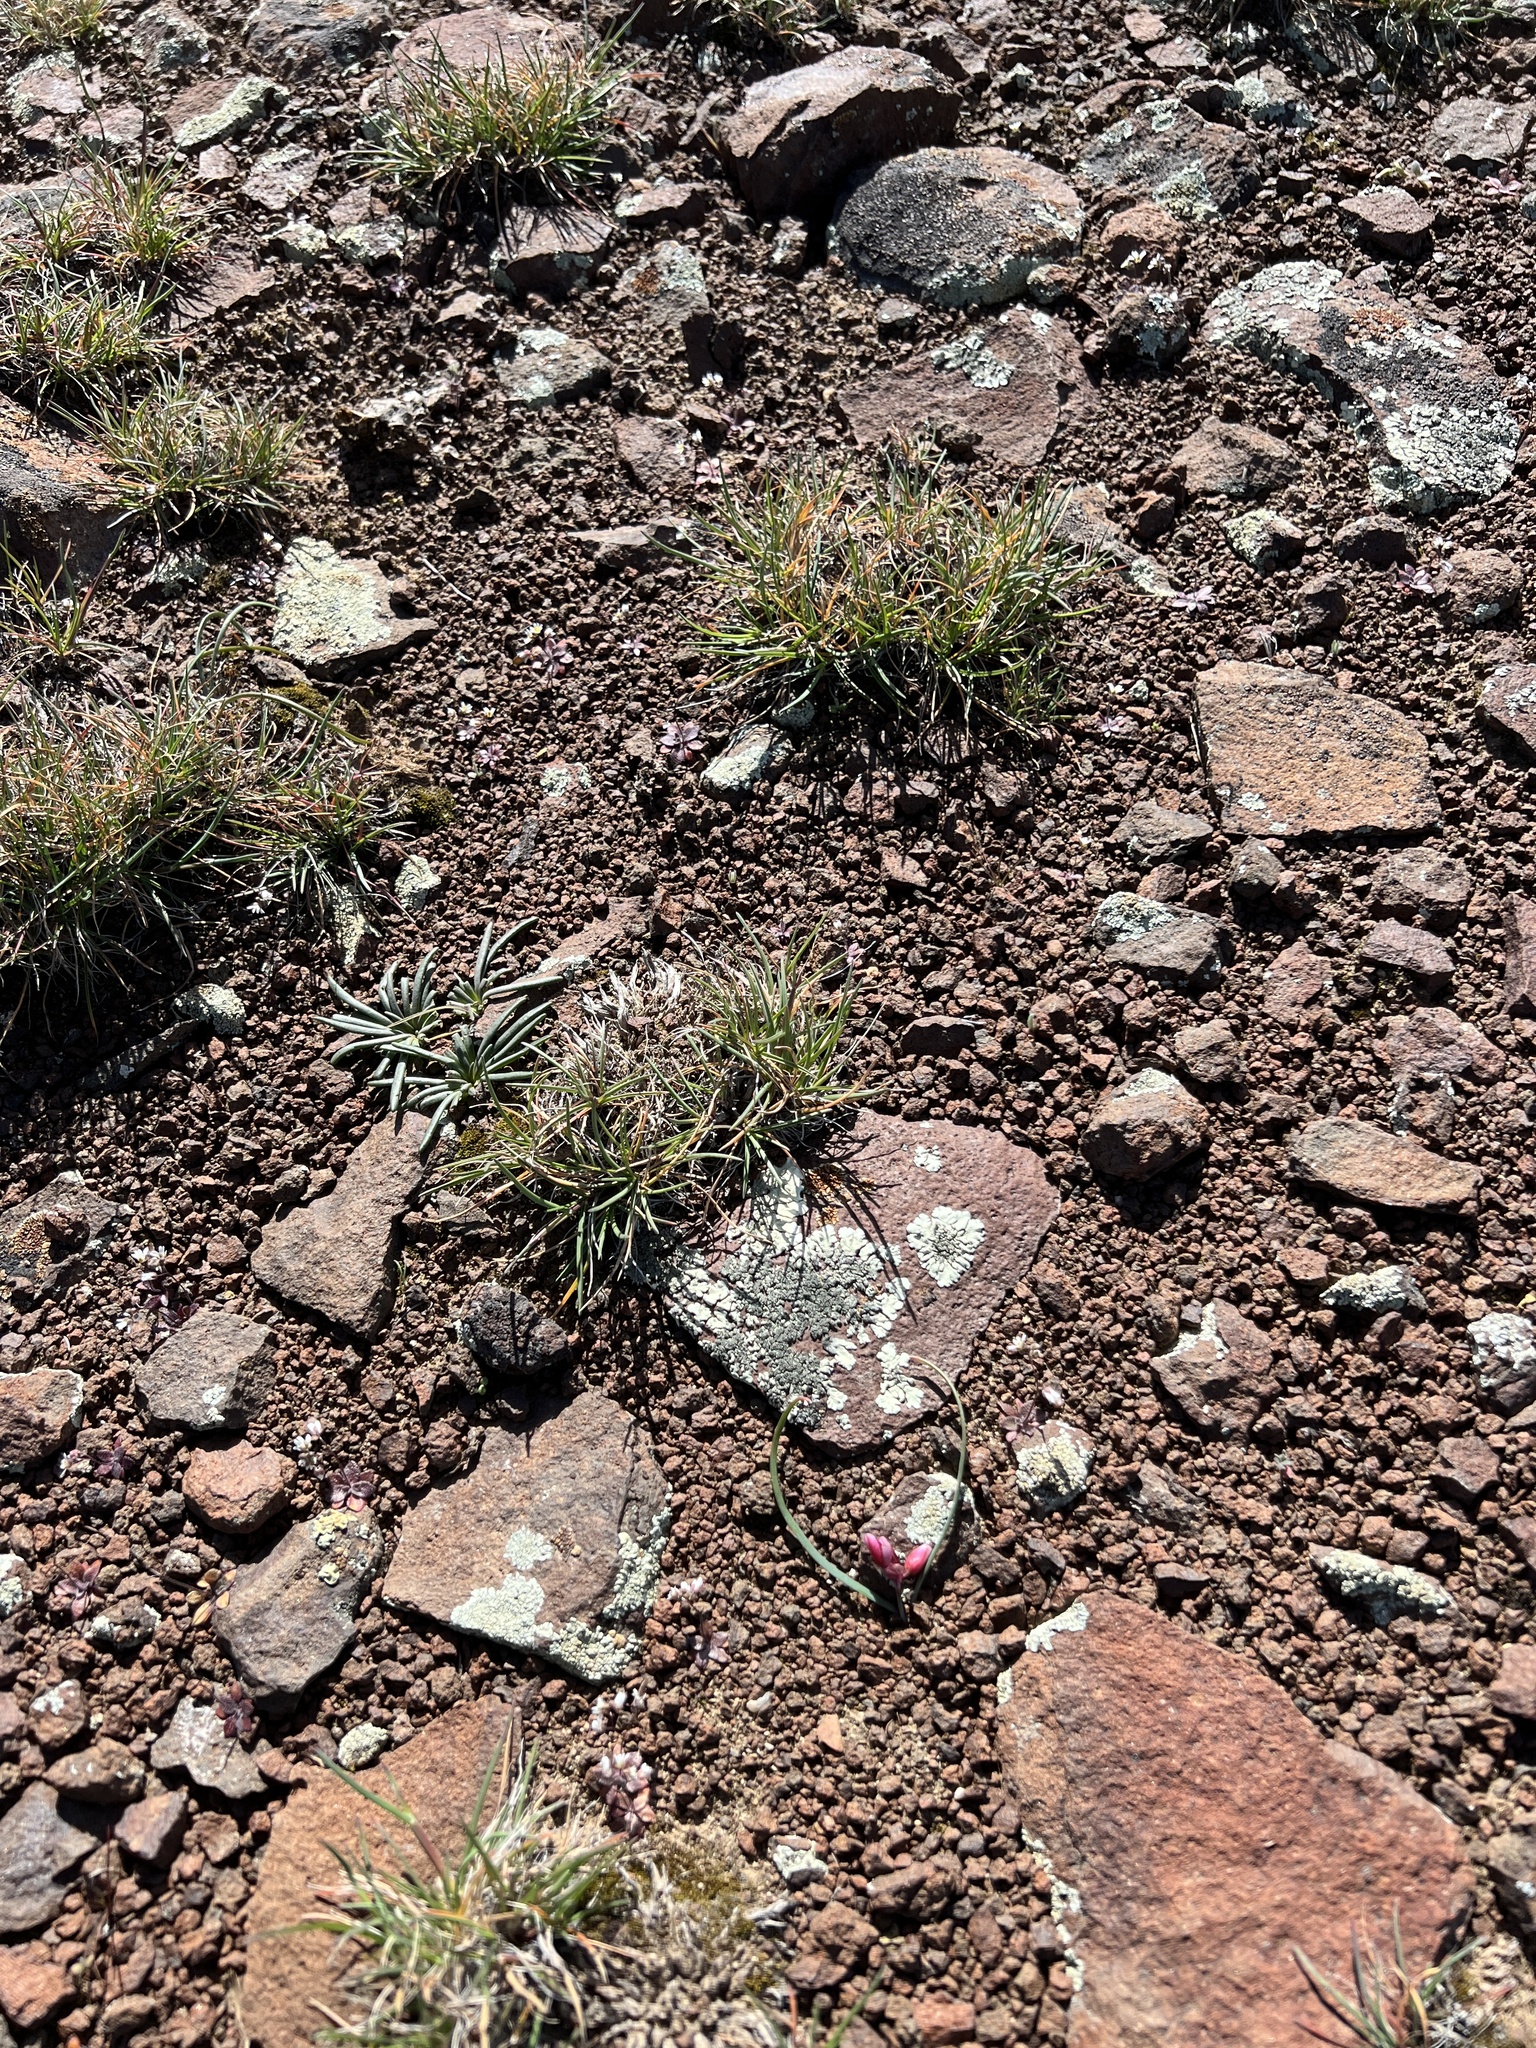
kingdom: Plantae
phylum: Tracheophyta
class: Liliopsida
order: Asparagales
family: Amaryllidaceae
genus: Allium
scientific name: Allium scilloides
